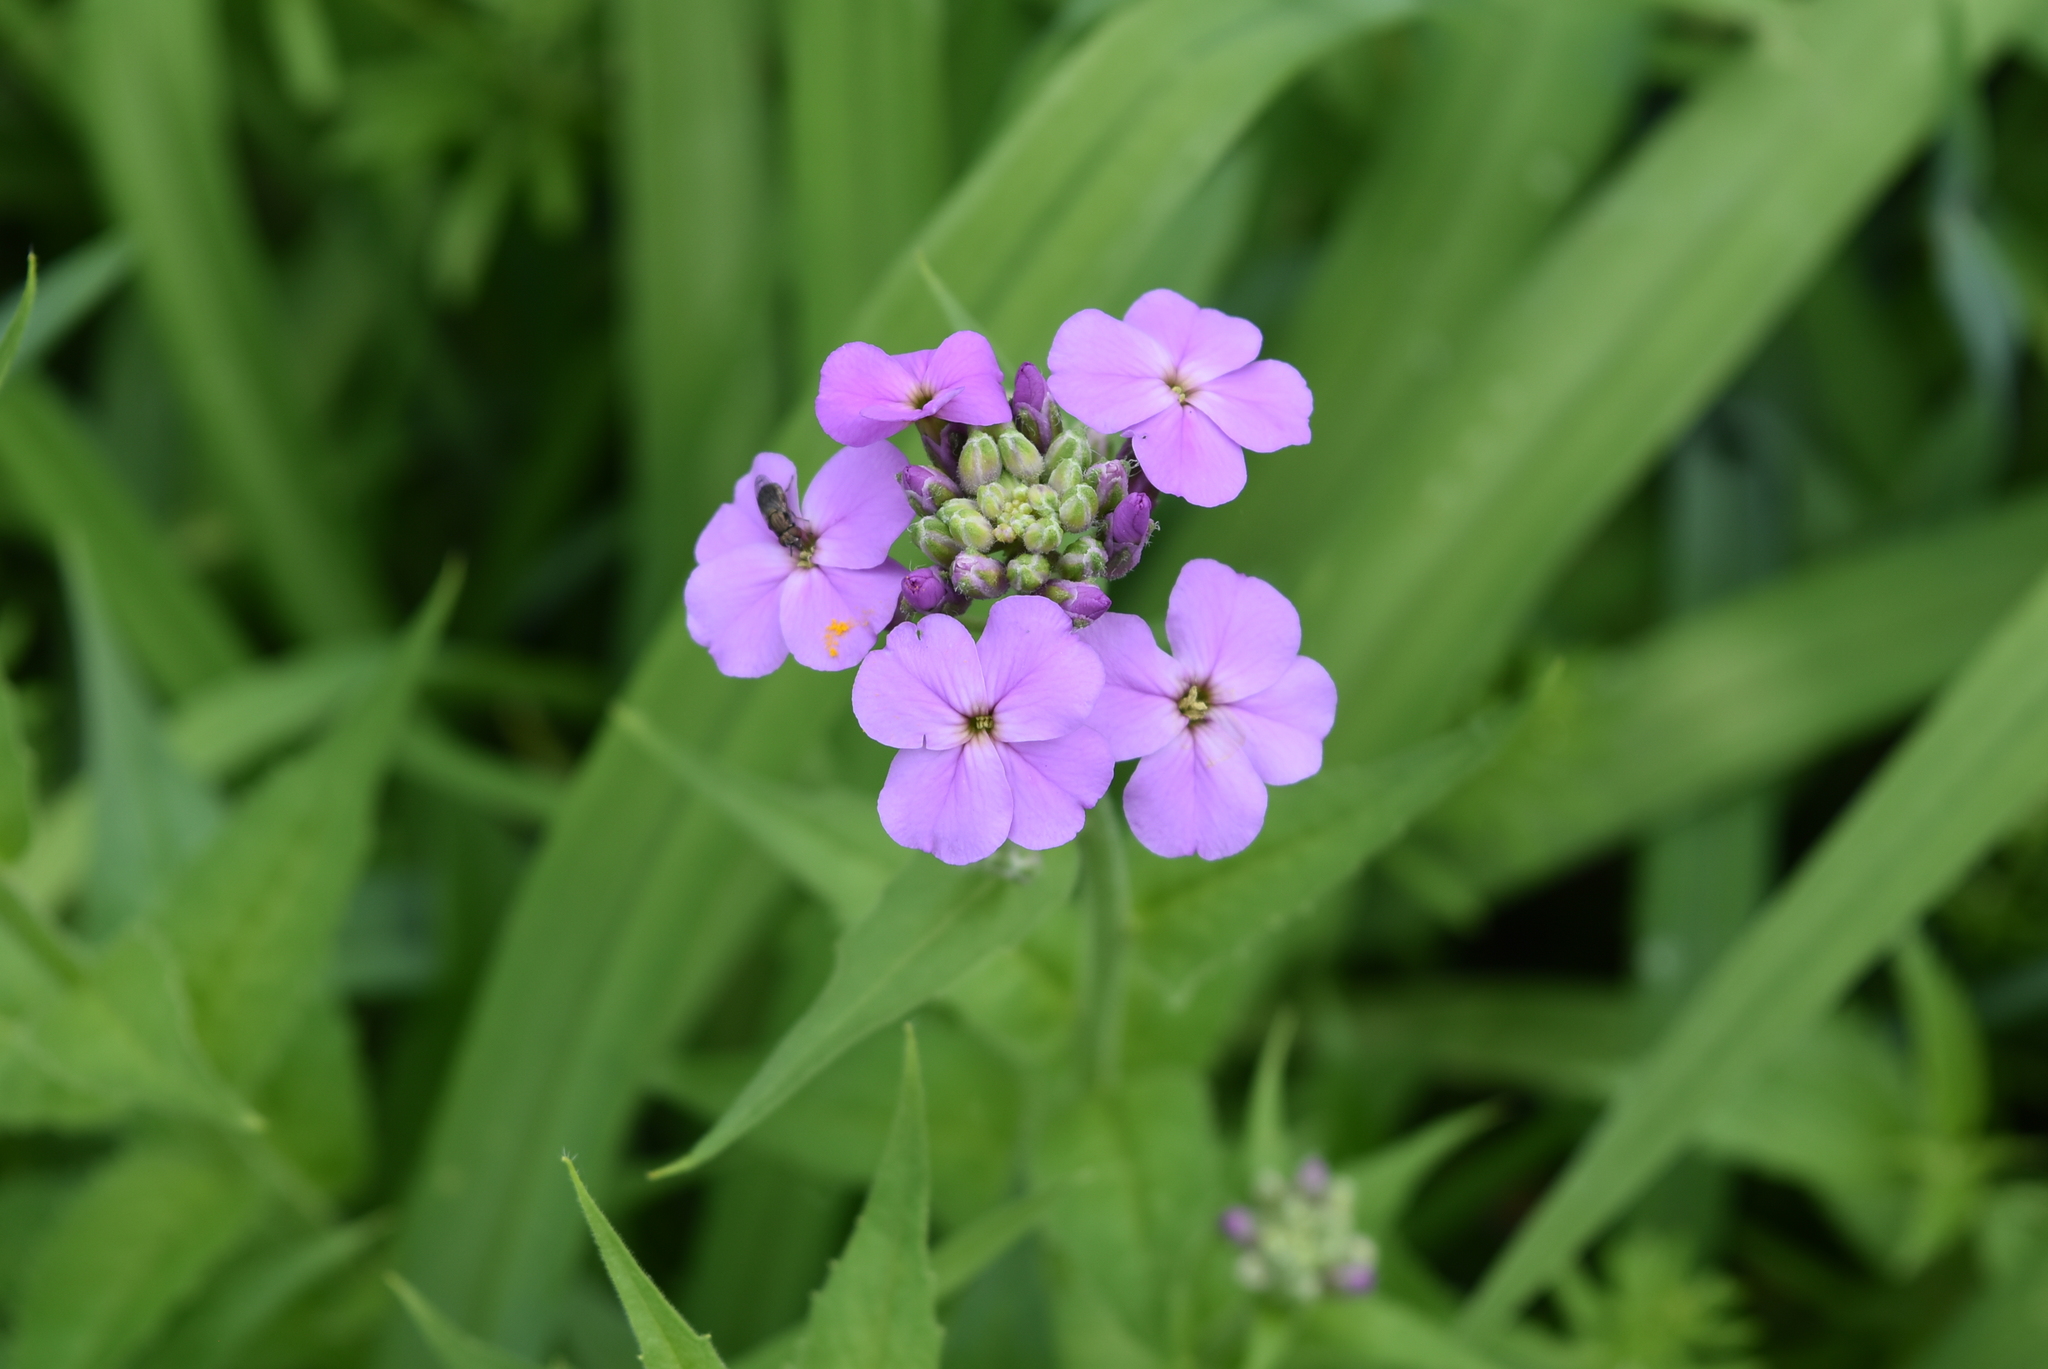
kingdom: Plantae
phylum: Tracheophyta
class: Magnoliopsida
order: Brassicales
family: Brassicaceae
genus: Hesperis
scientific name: Hesperis matronalis
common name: Dame's-violet
